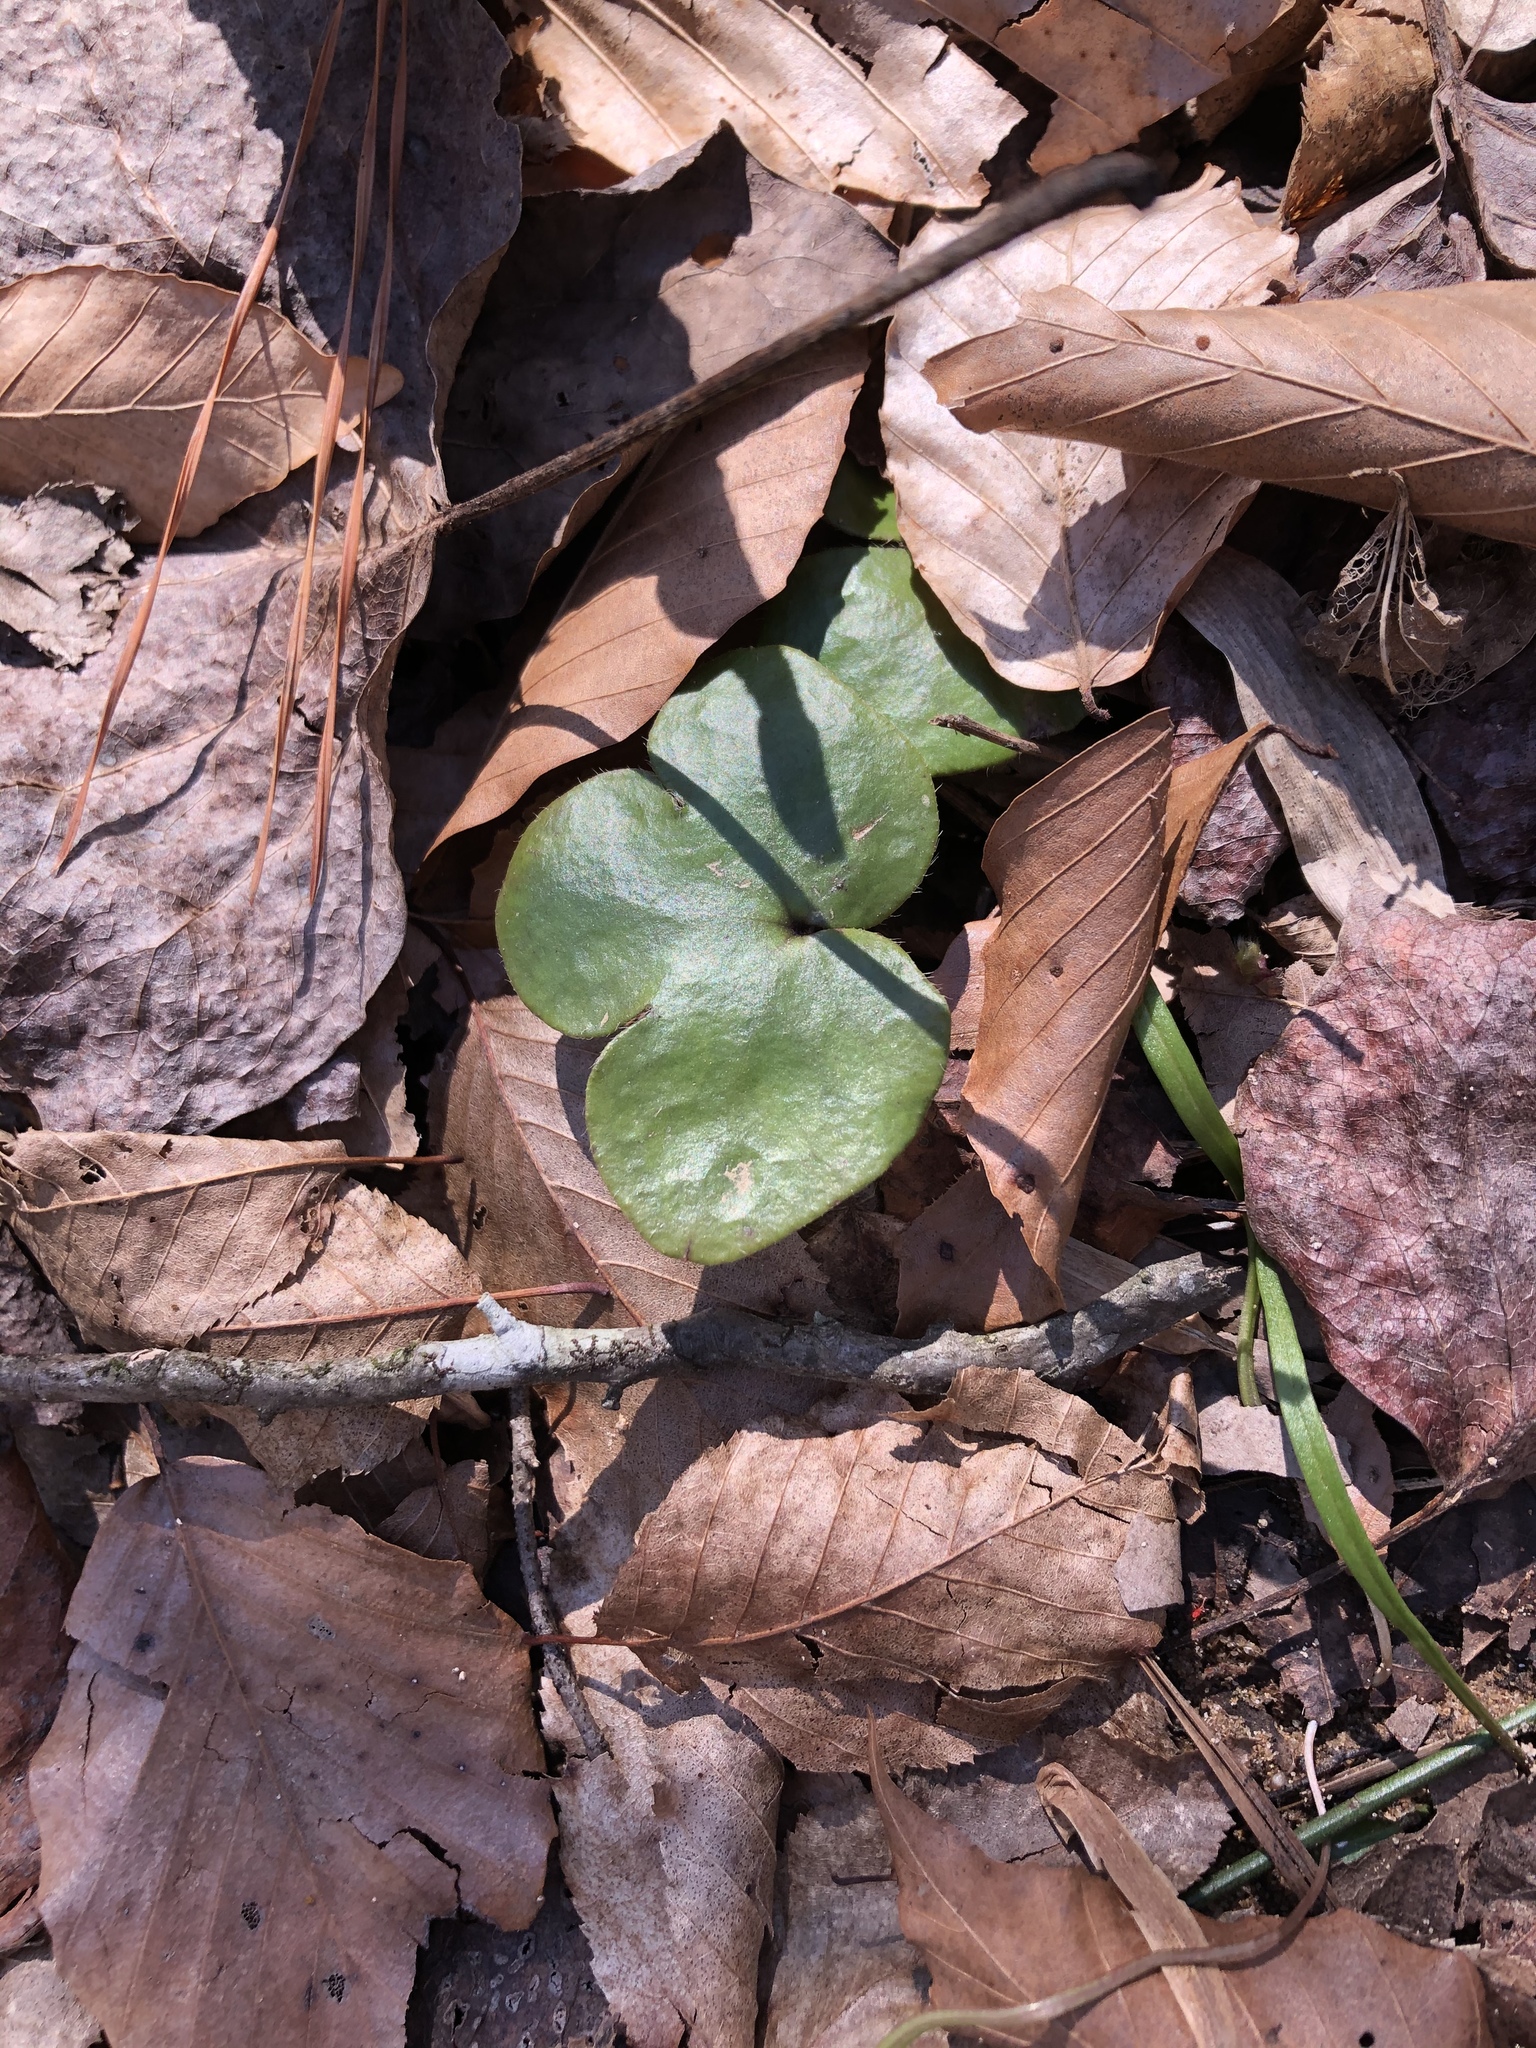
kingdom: Plantae
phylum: Tracheophyta
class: Magnoliopsida
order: Ranunculales
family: Ranunculaceae
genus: Hepatica
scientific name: Hepatica americana
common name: American hepatica
